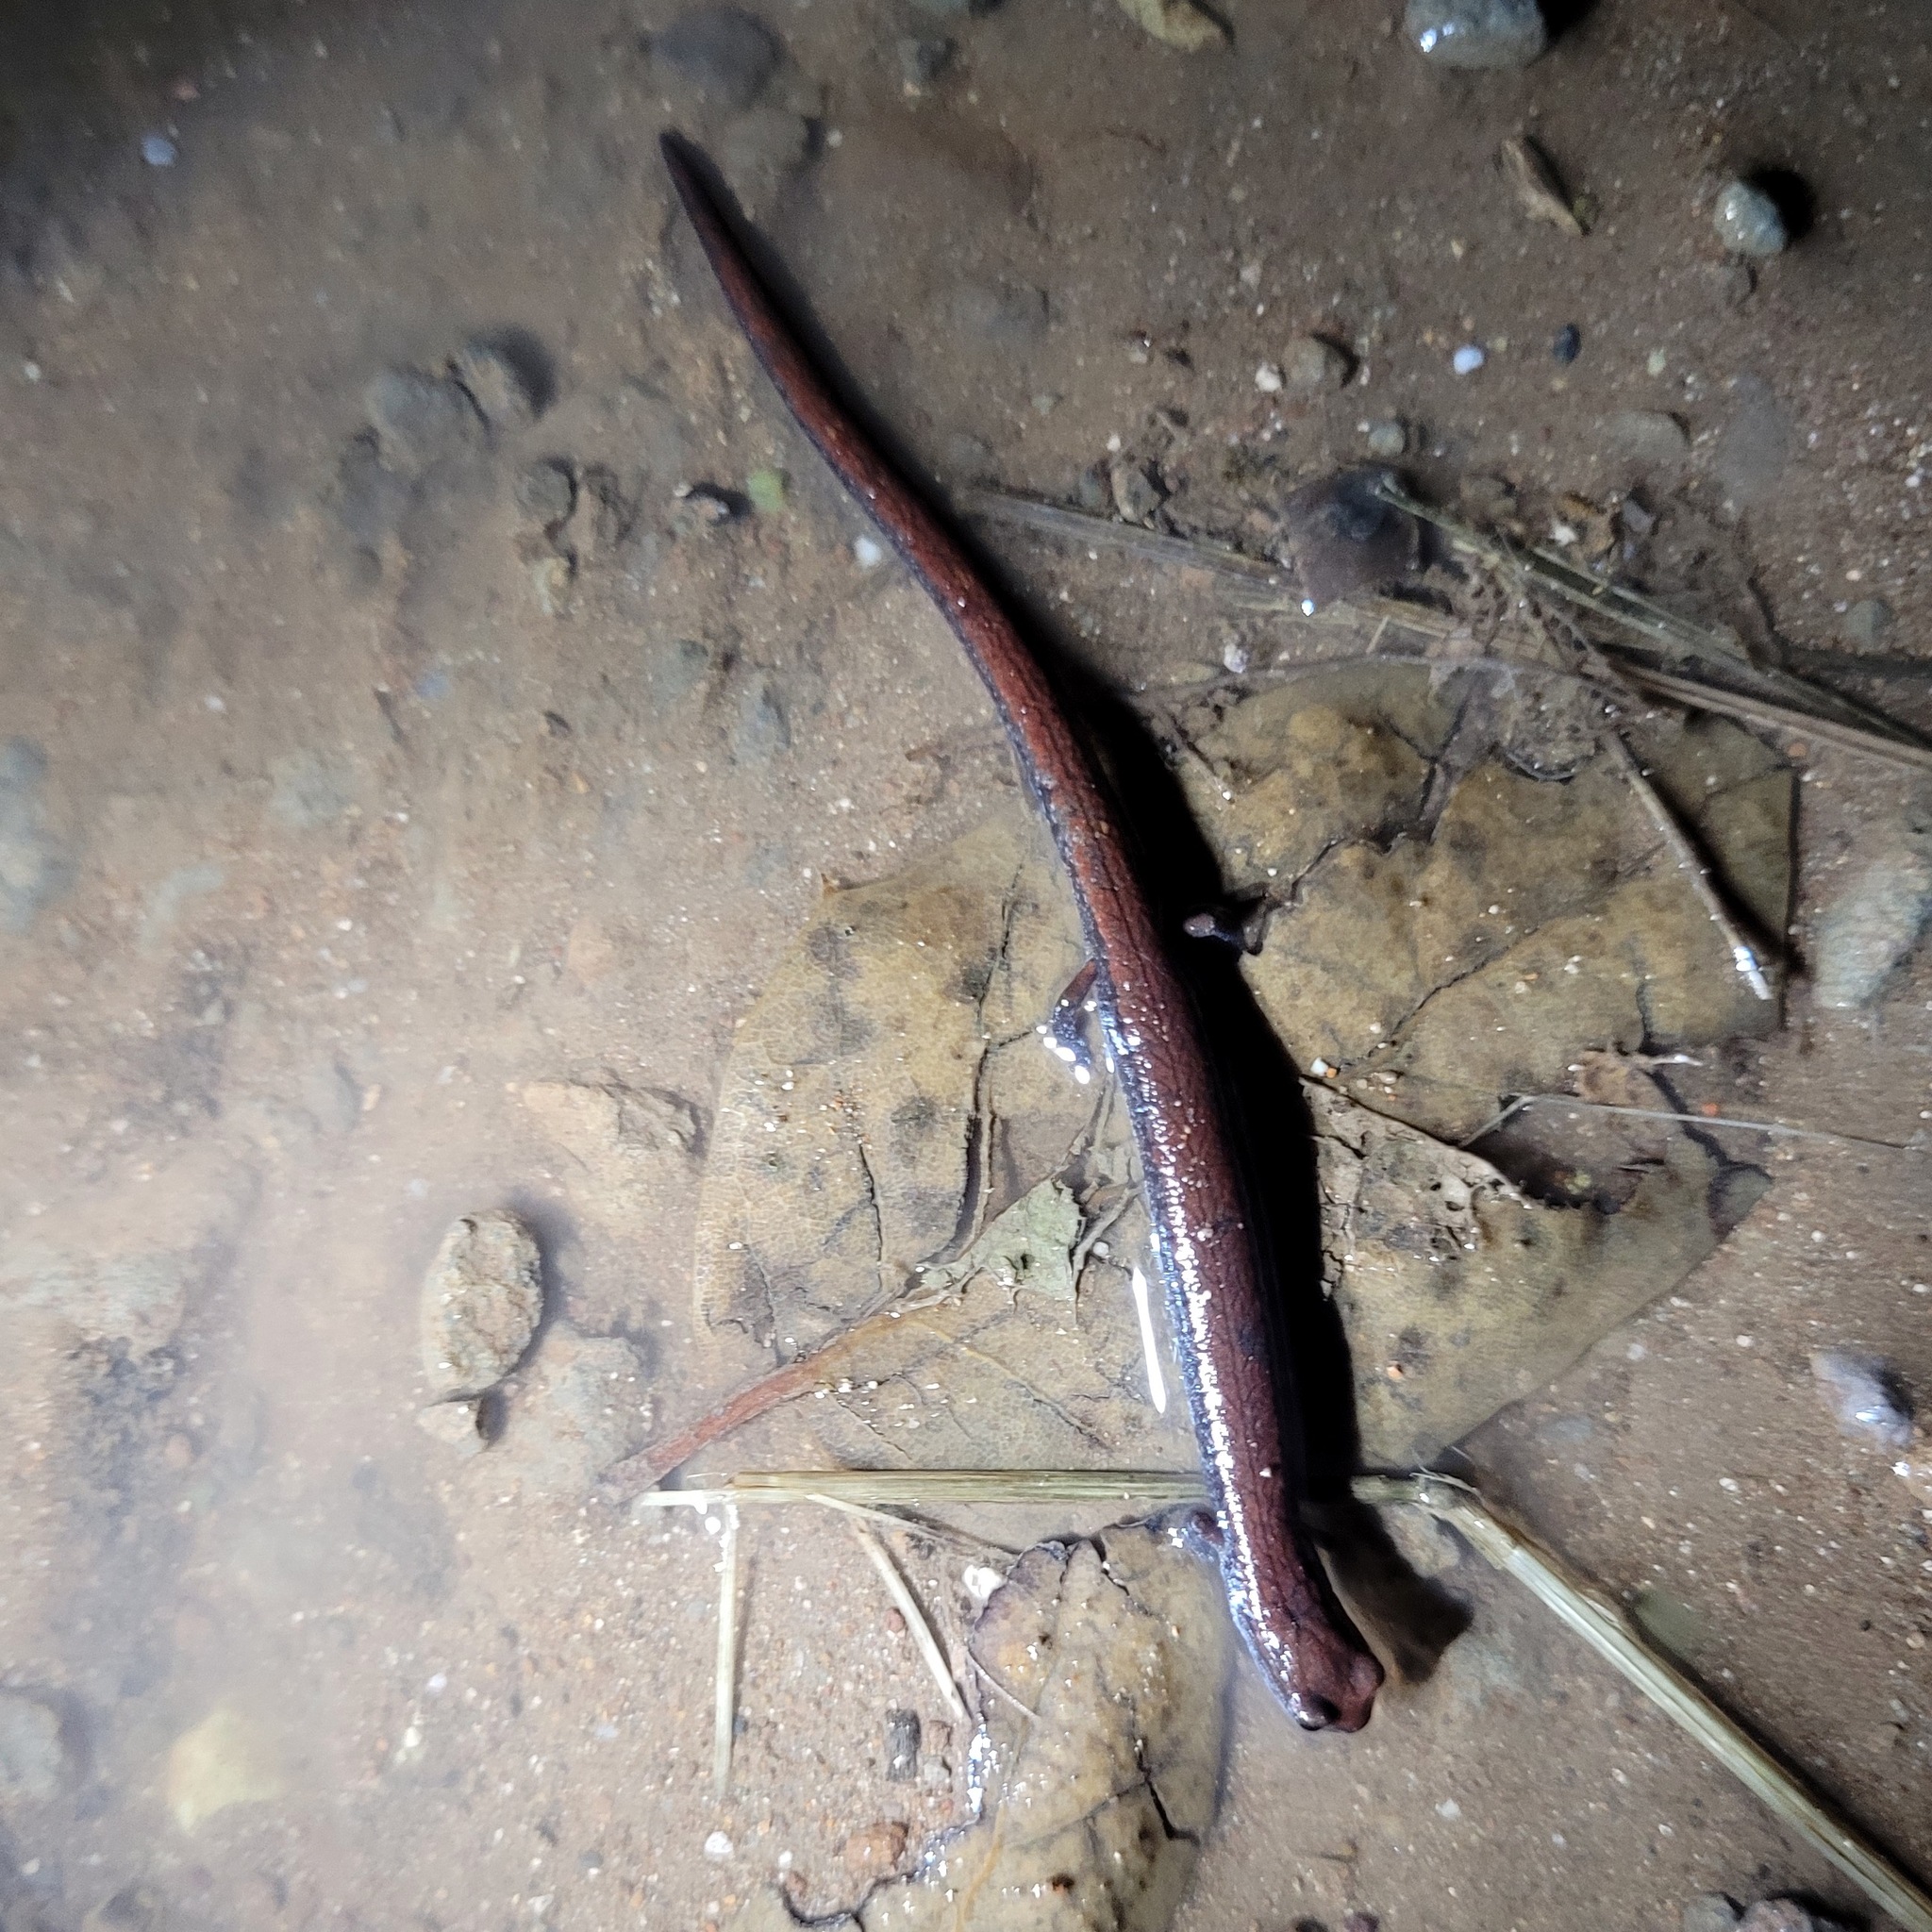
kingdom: Animalia
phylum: Chordata
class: Amphibia
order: Caudata
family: Plethodontidae
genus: Batrachoseps
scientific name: Batrachoseps attenuatus
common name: California slender salamander
